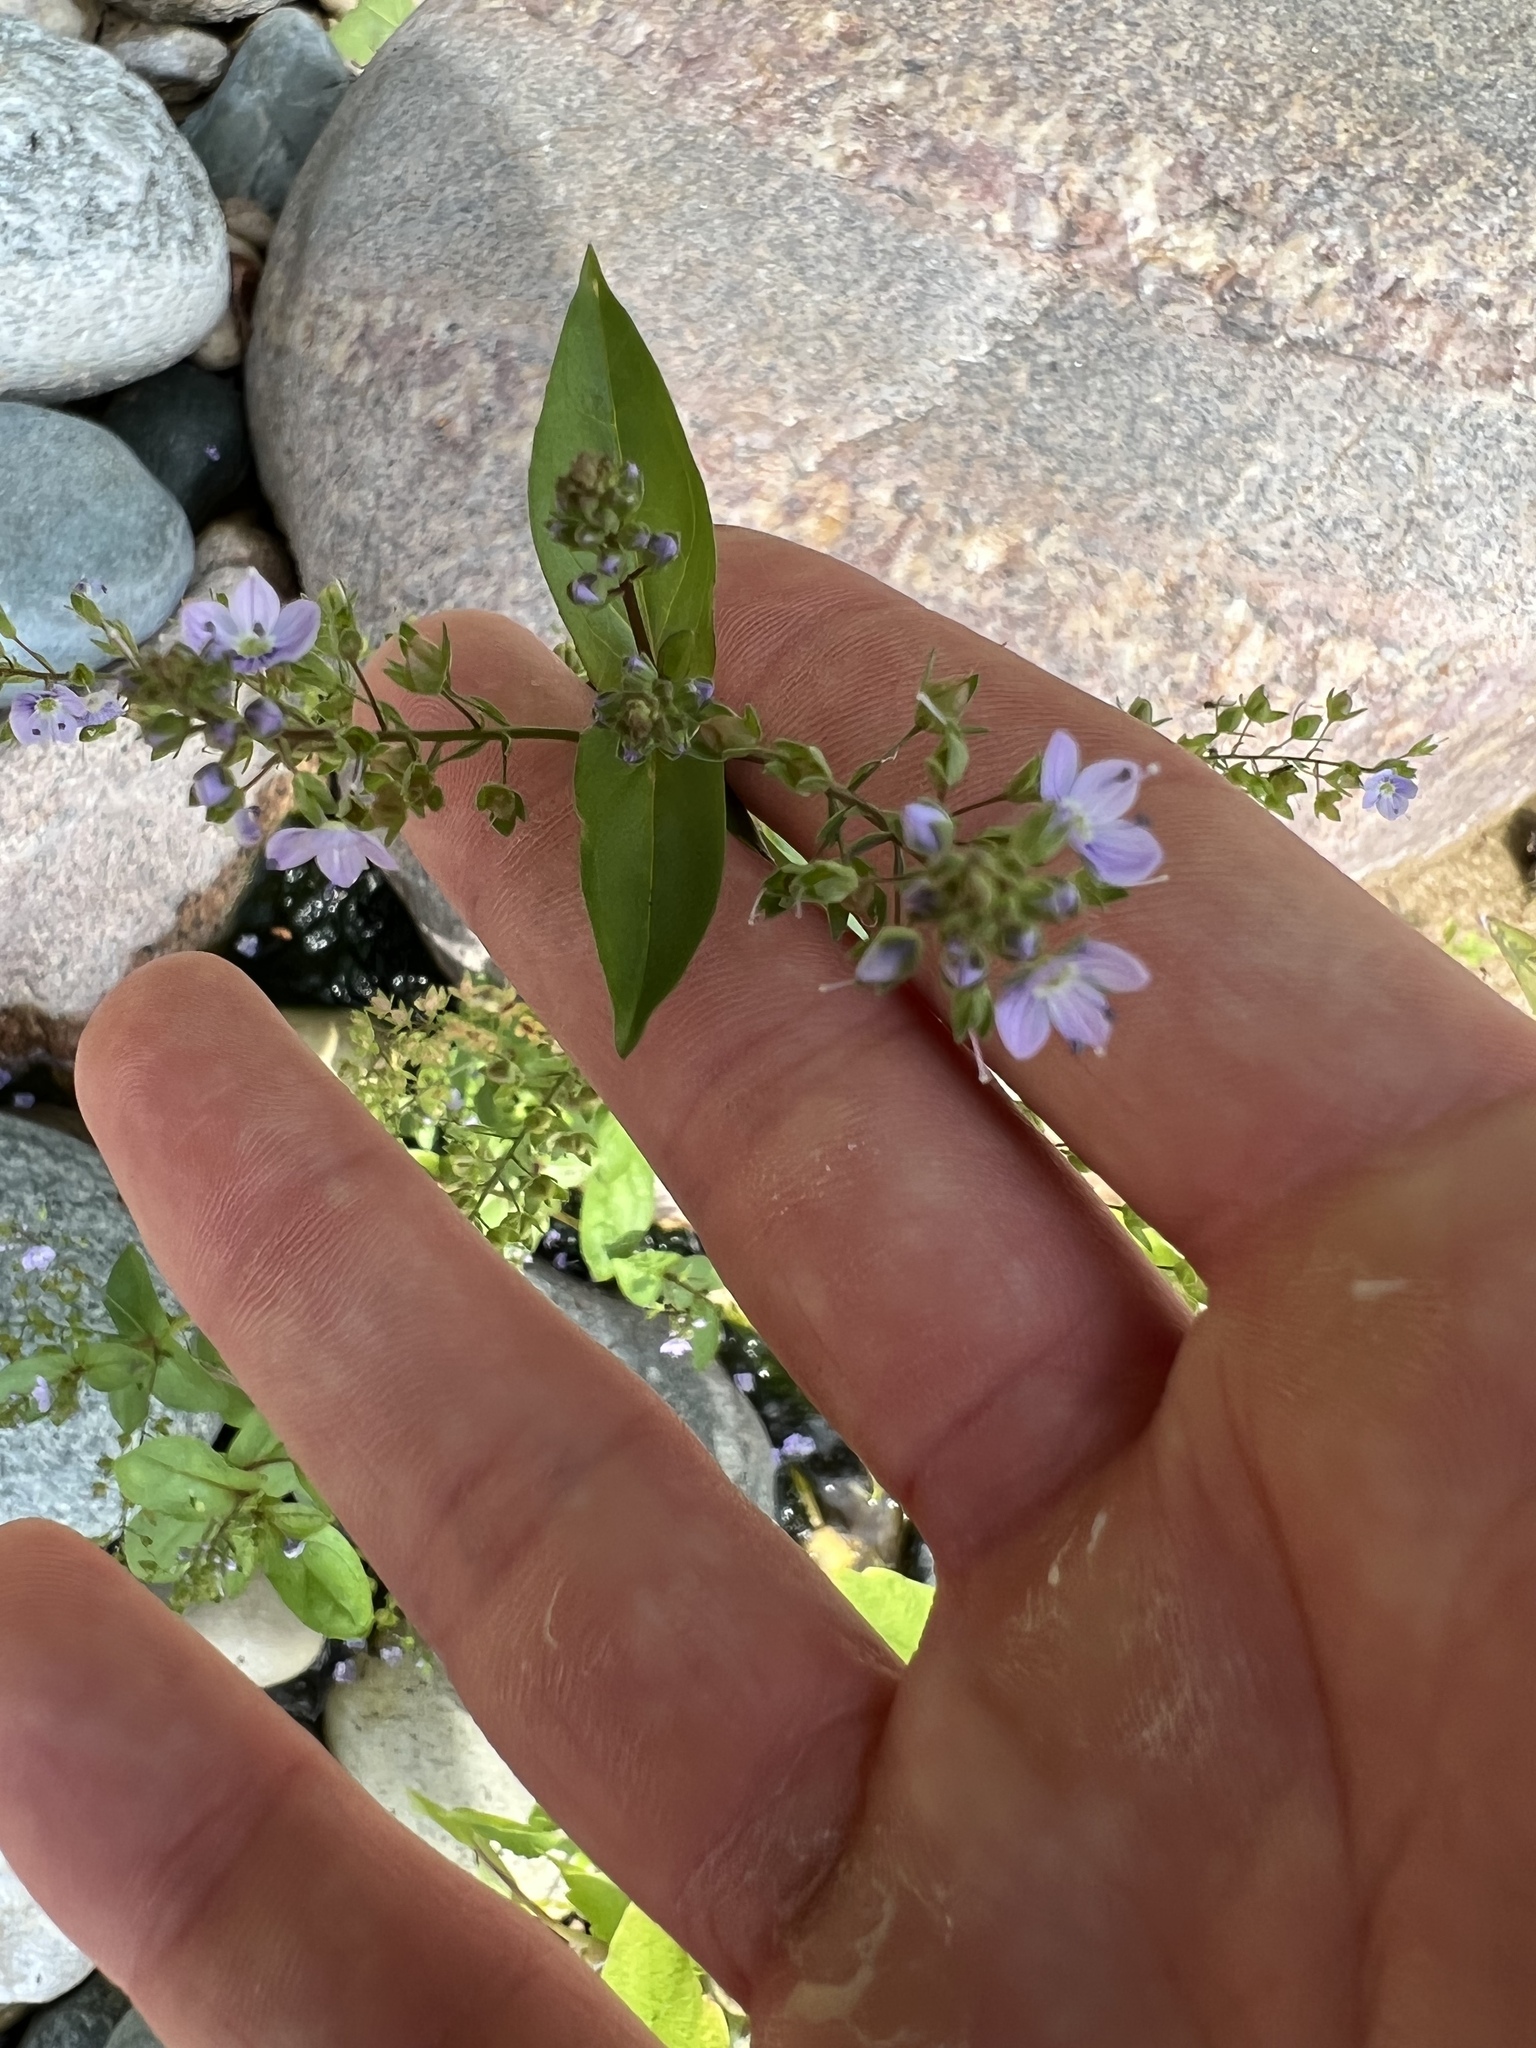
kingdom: Plantae
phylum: Tracheophyta
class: Magnoliopsida
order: Lamiales
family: Plantaginaceae
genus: Veronica
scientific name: Veronica anagallis-aquatica
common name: Water speedwell
